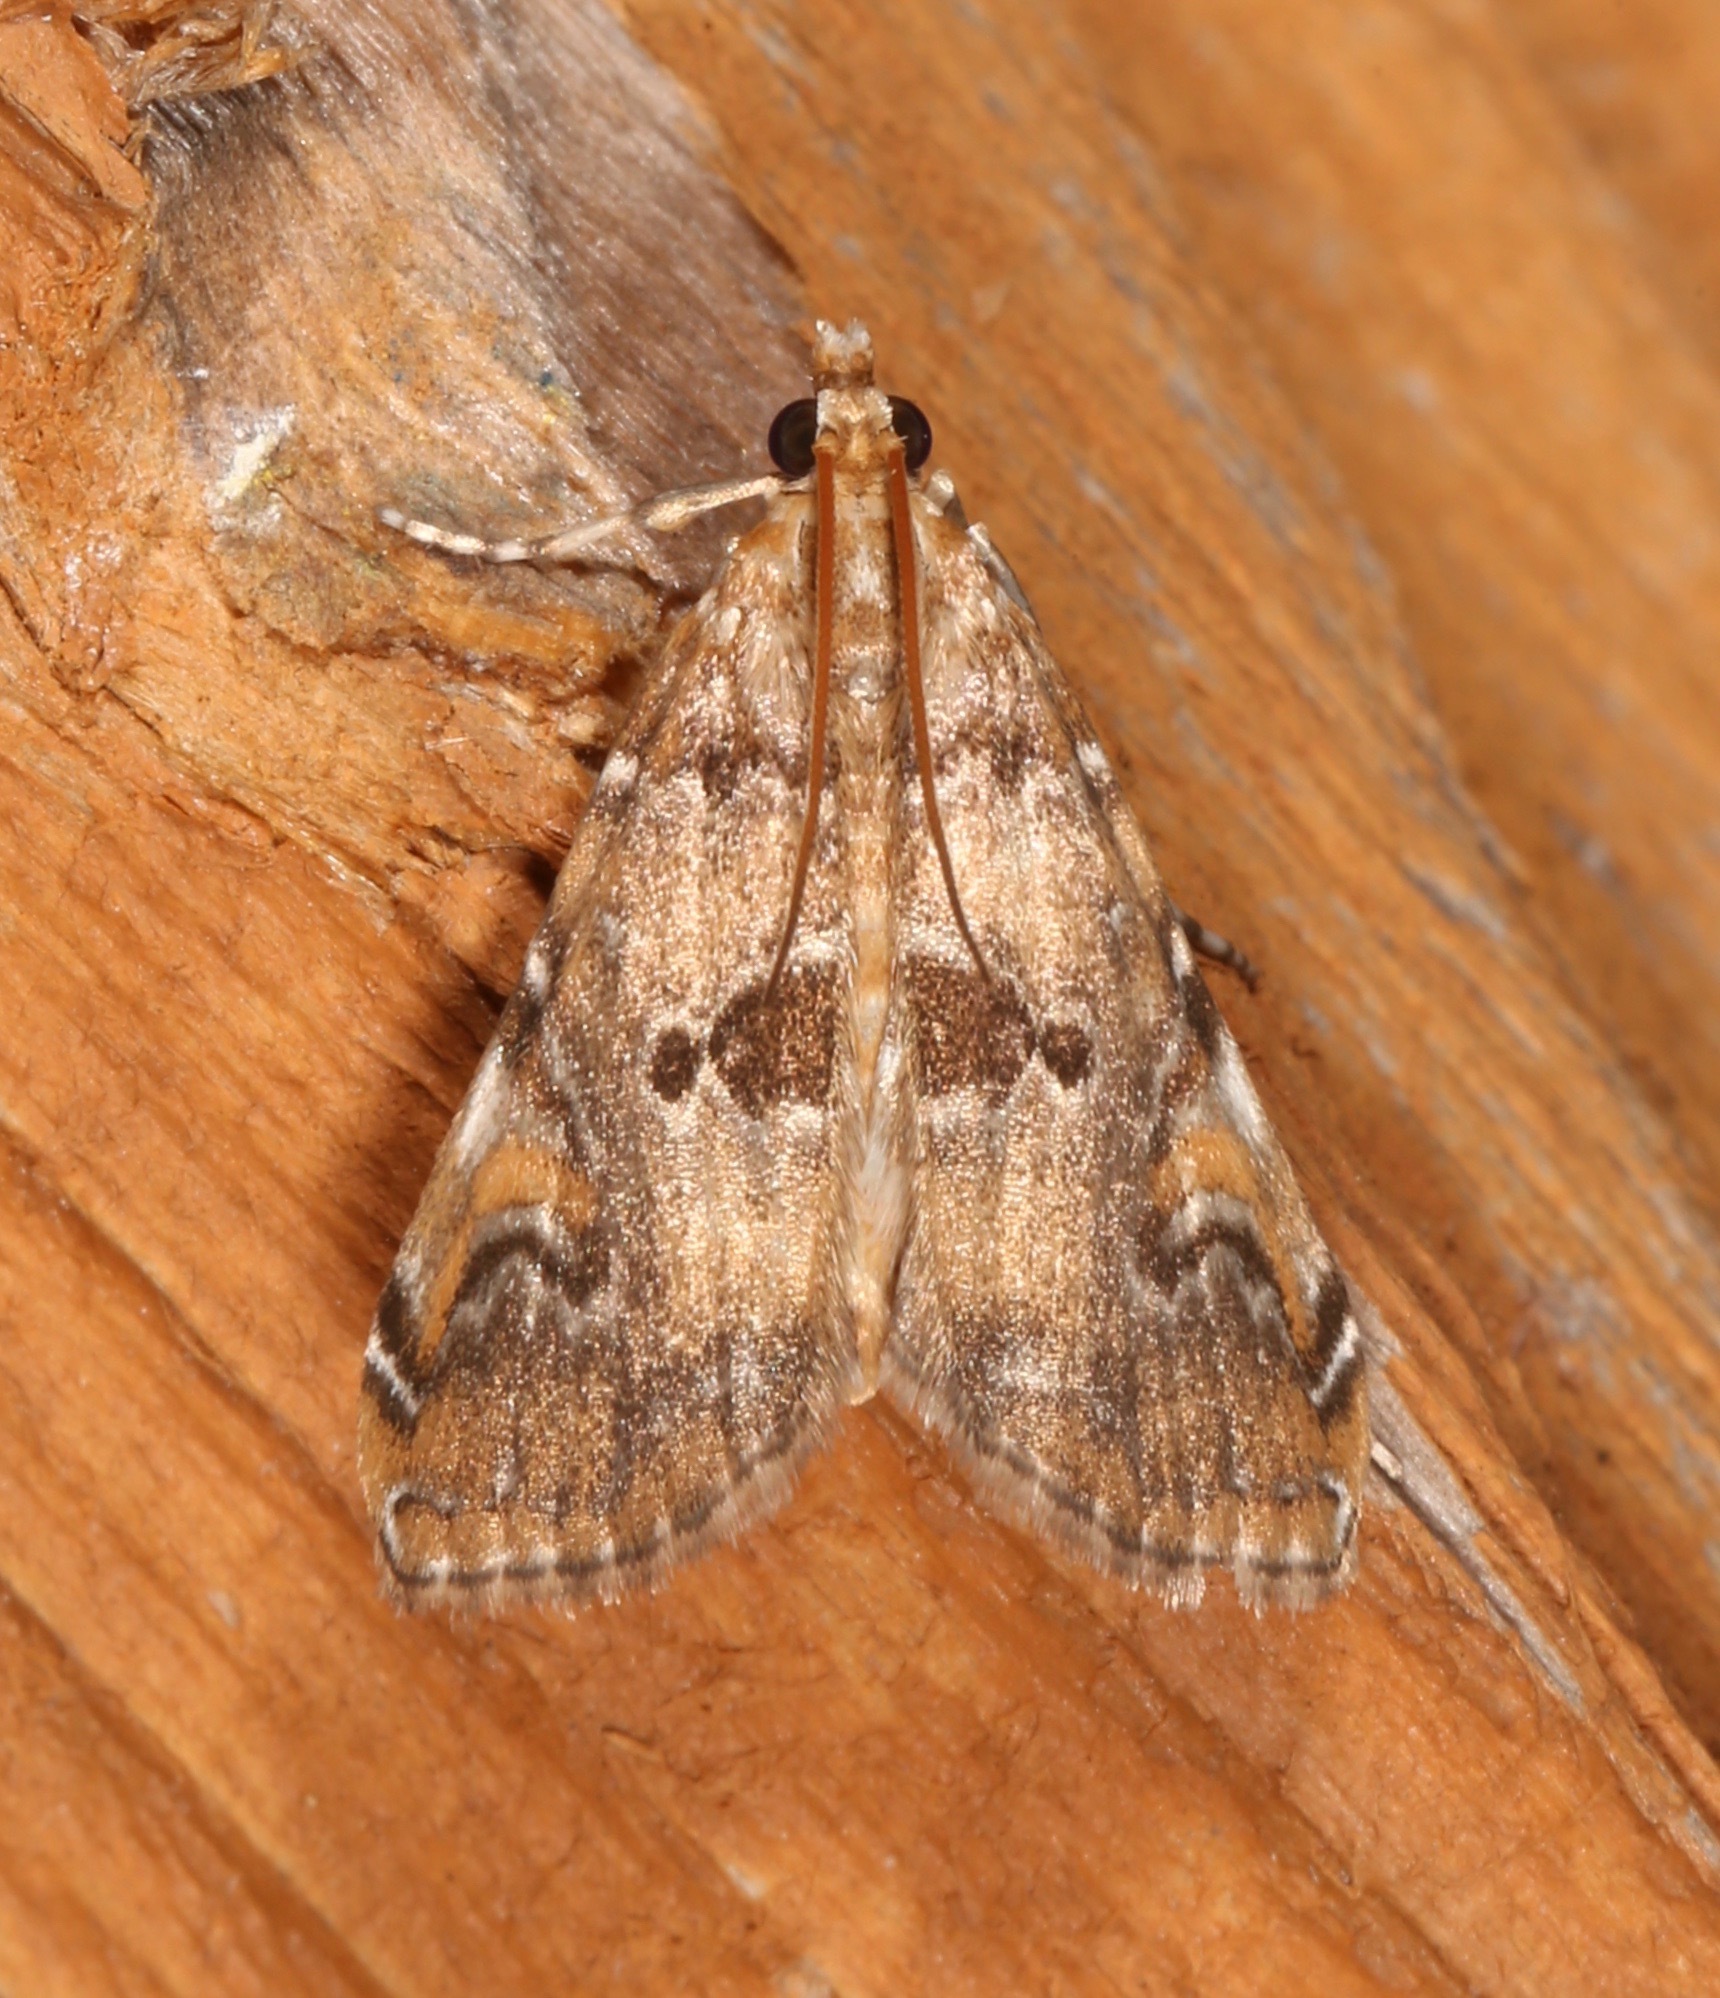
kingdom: Animalia
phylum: Arthropoda
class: Insecta
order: Lepidoptera
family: Crambidae
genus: Elophila
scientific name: Elophila gyralis
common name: Waterlily borer moth
